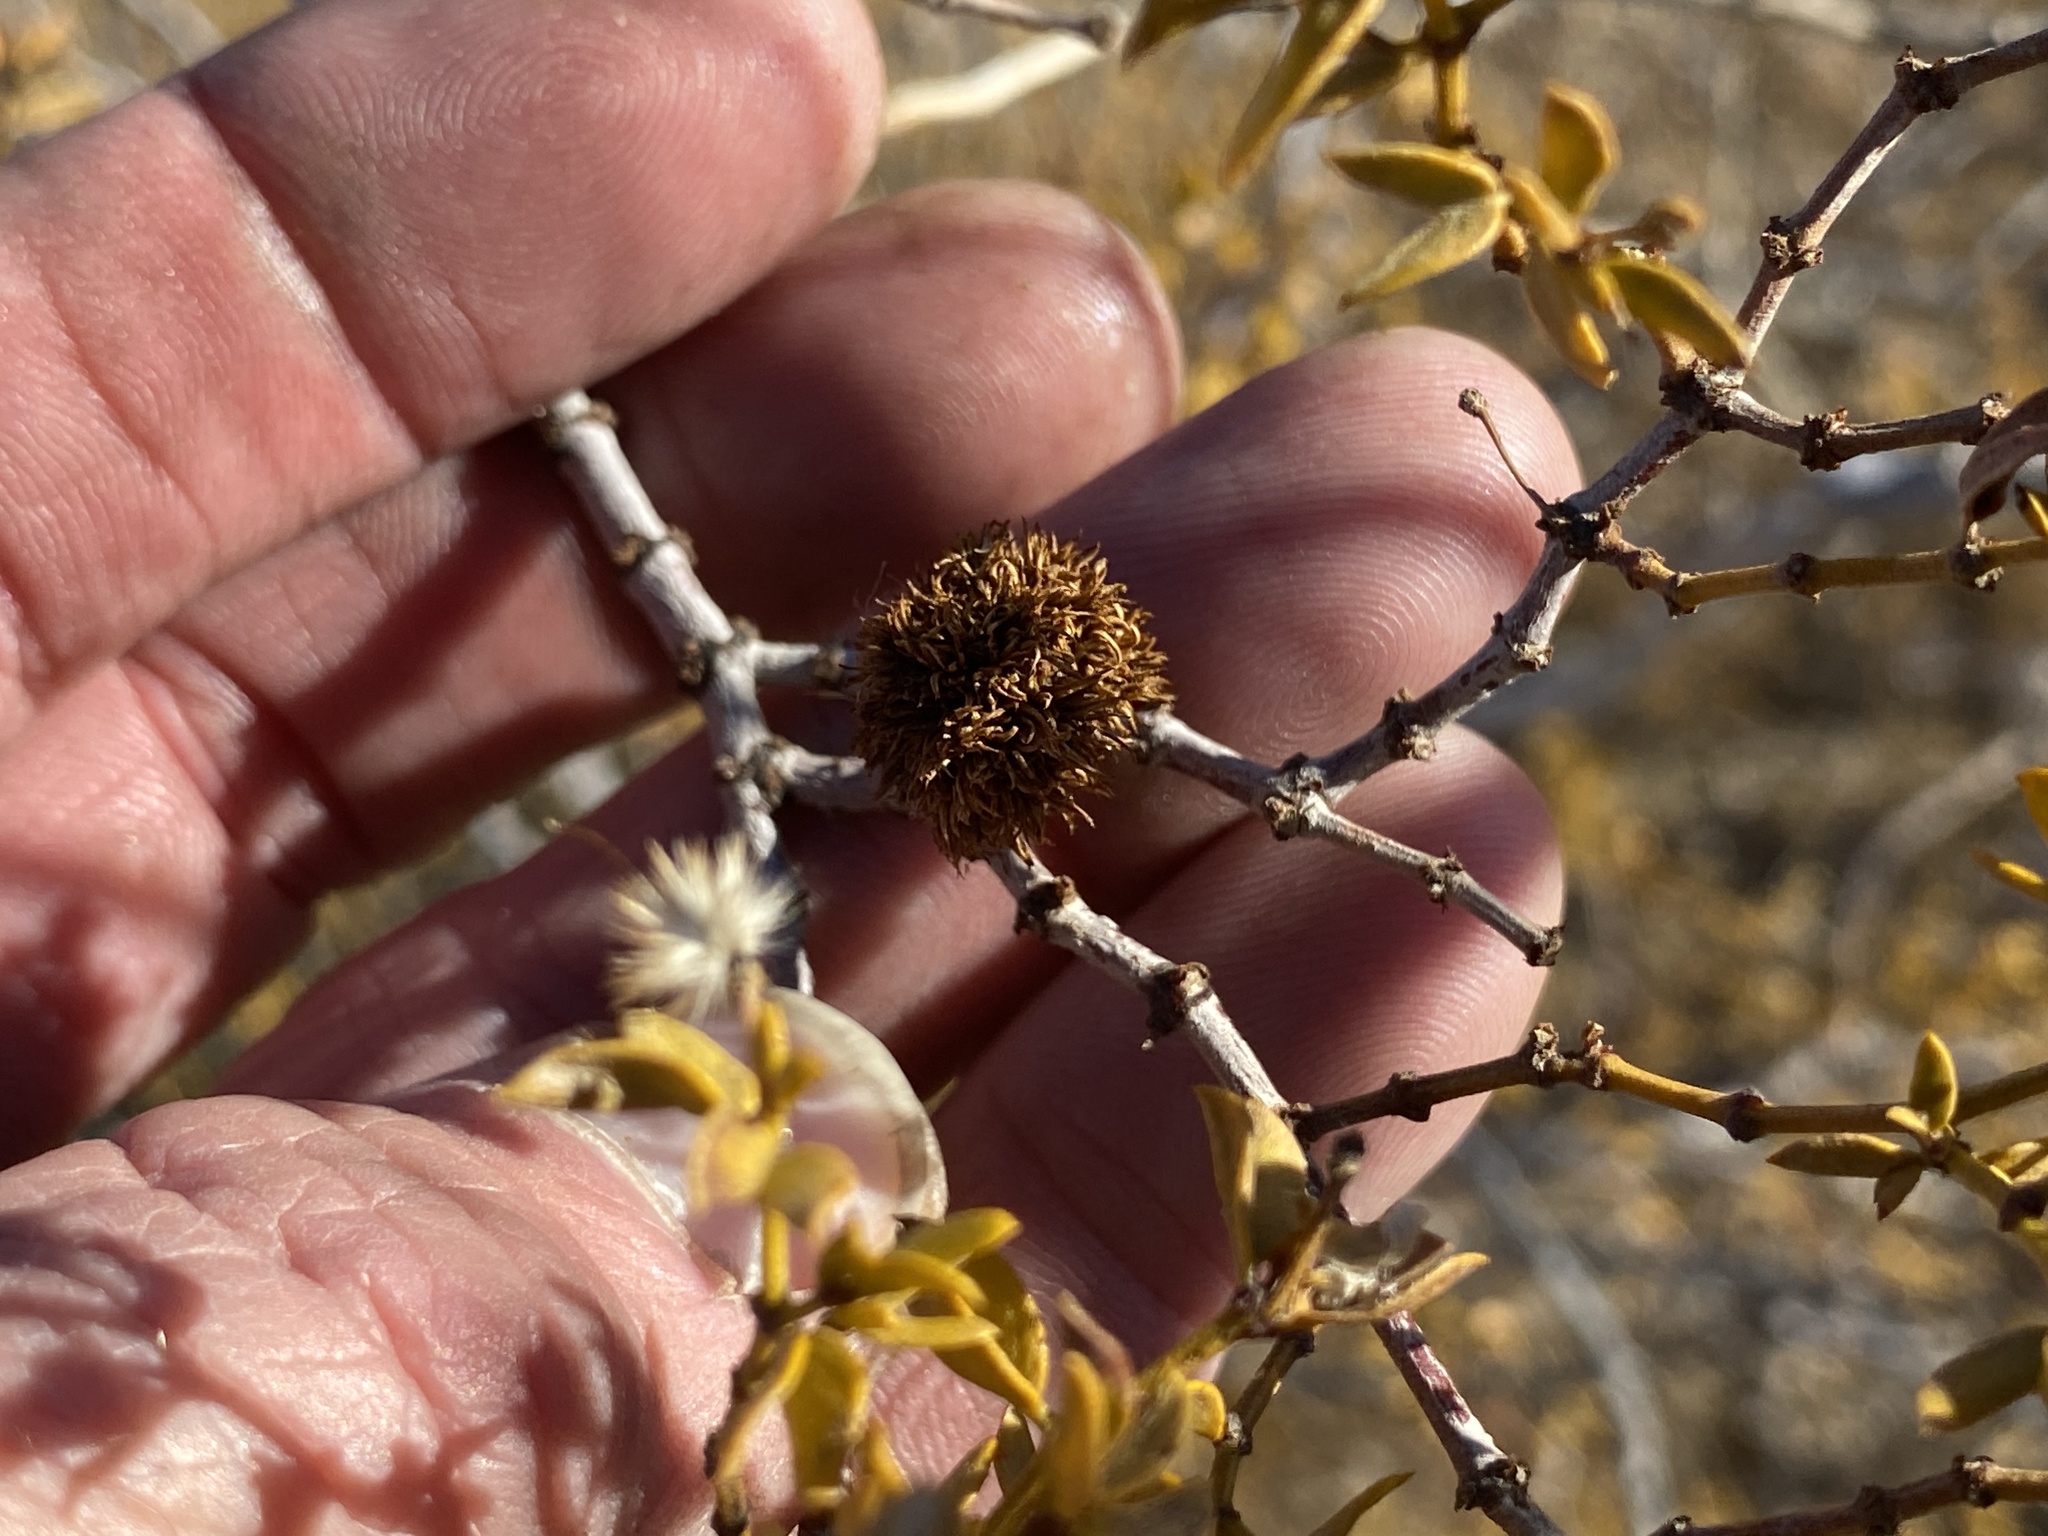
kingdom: Animalia
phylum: Arthropoda
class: Insecta
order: Diptera
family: Cecidomyiidae
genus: Asphondylia
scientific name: Asphondylia auripila
